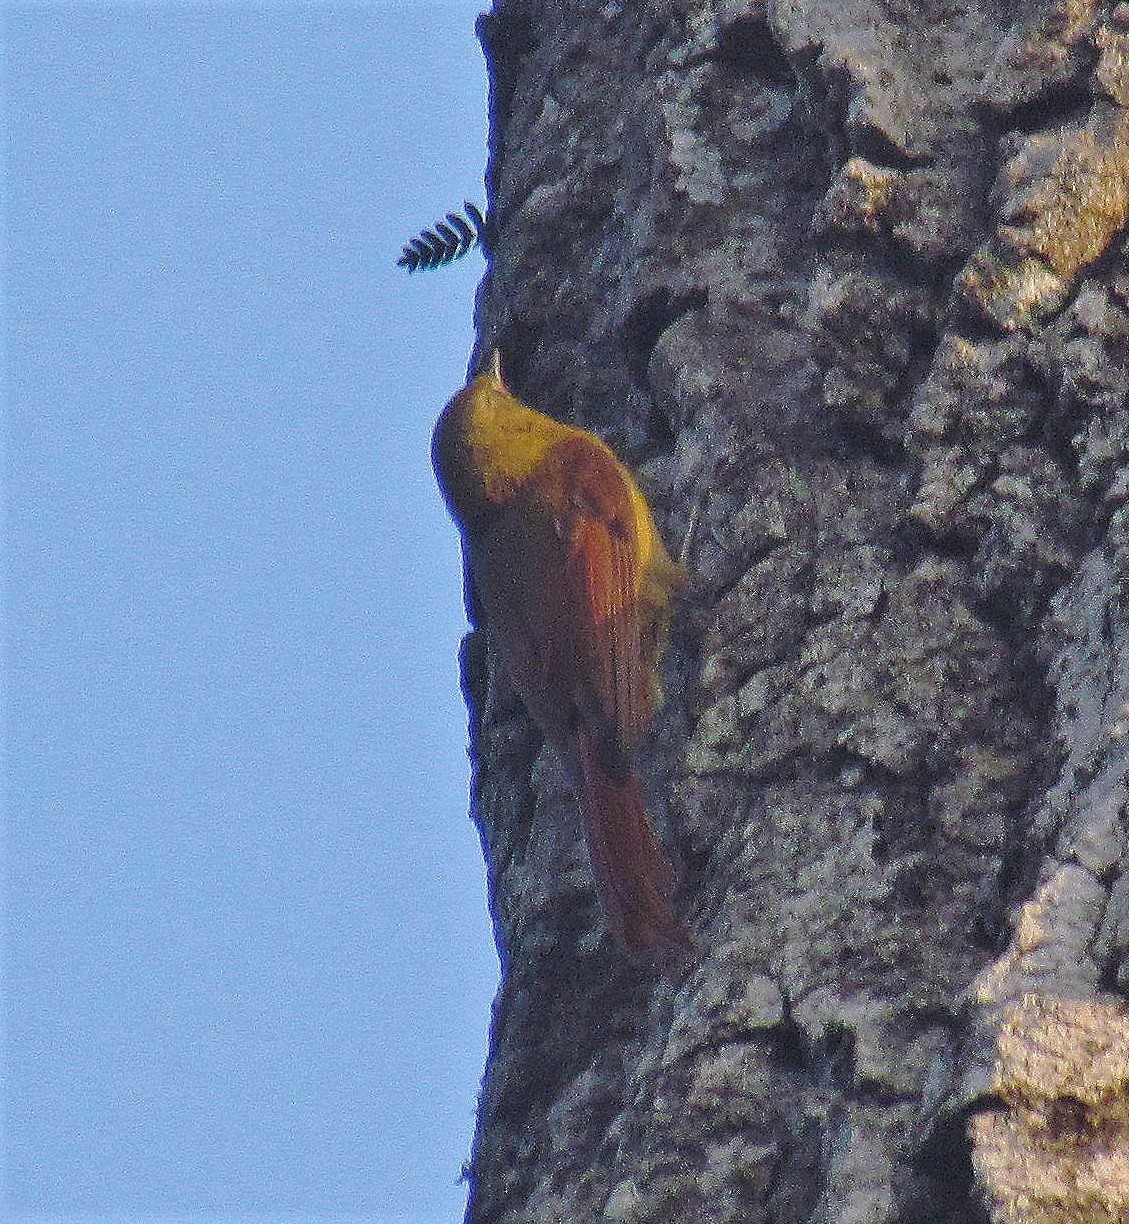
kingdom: Animalia
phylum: Chordata
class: Aves
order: Passeriformes
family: Furnariidae
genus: Sittasomus
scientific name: Sittasomus griseicapillus
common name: Olivaceous woodcreeper
